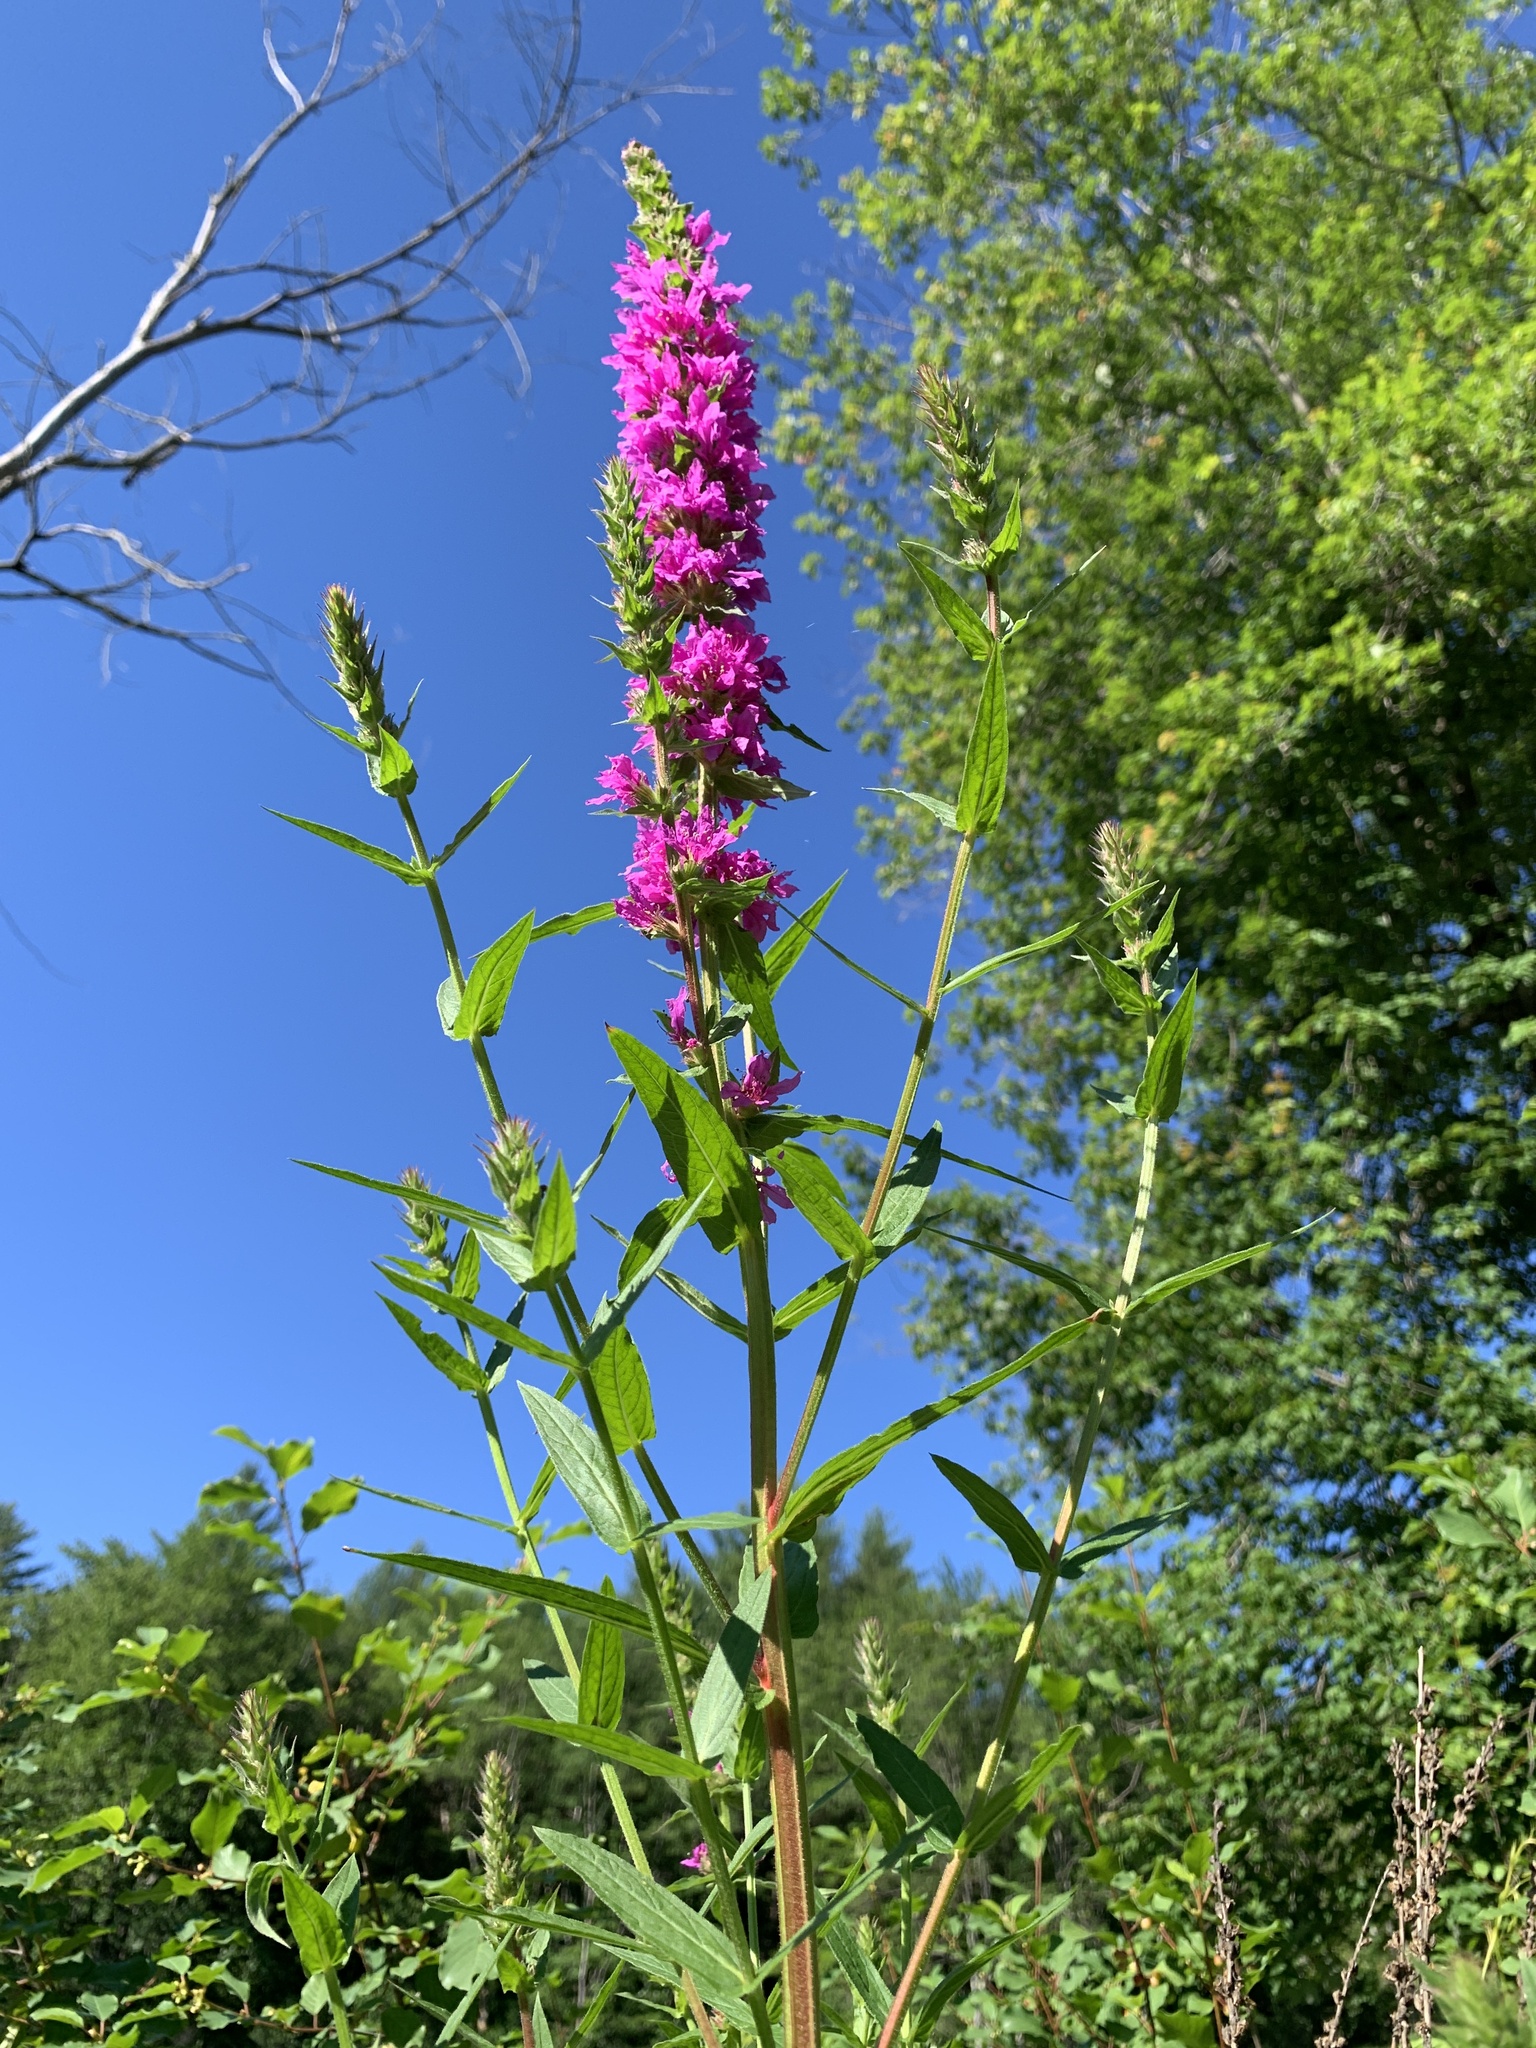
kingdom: Plantae
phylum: Tracheophyta
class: Magnoliopsida
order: Myrtales
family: Lythraceae
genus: Lythrum
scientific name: Lythrum salicaria
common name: Purple loosestrife
